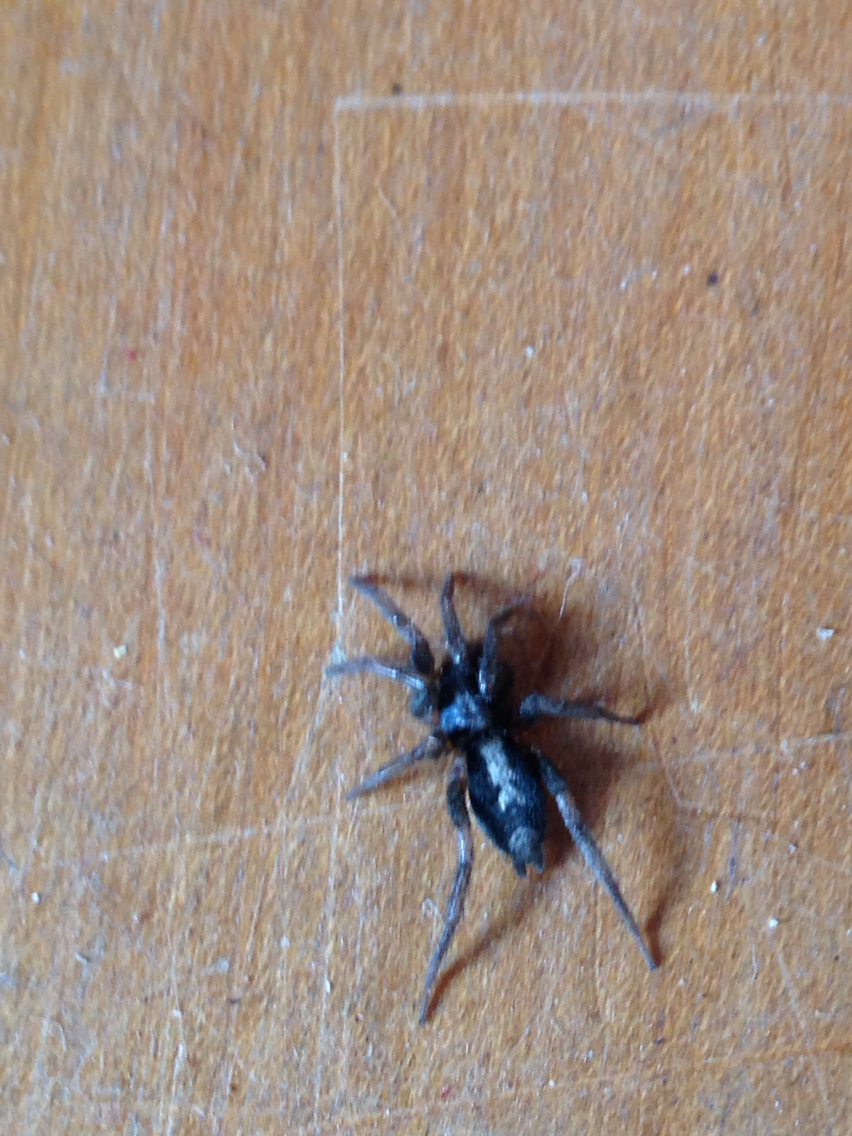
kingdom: Animalia
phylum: Arthropoda
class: Arachnida
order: Araneae
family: Gnaphosidae
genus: Herpyllus
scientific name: Herpyllus ecclesiasticus
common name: Eastern parson spider
